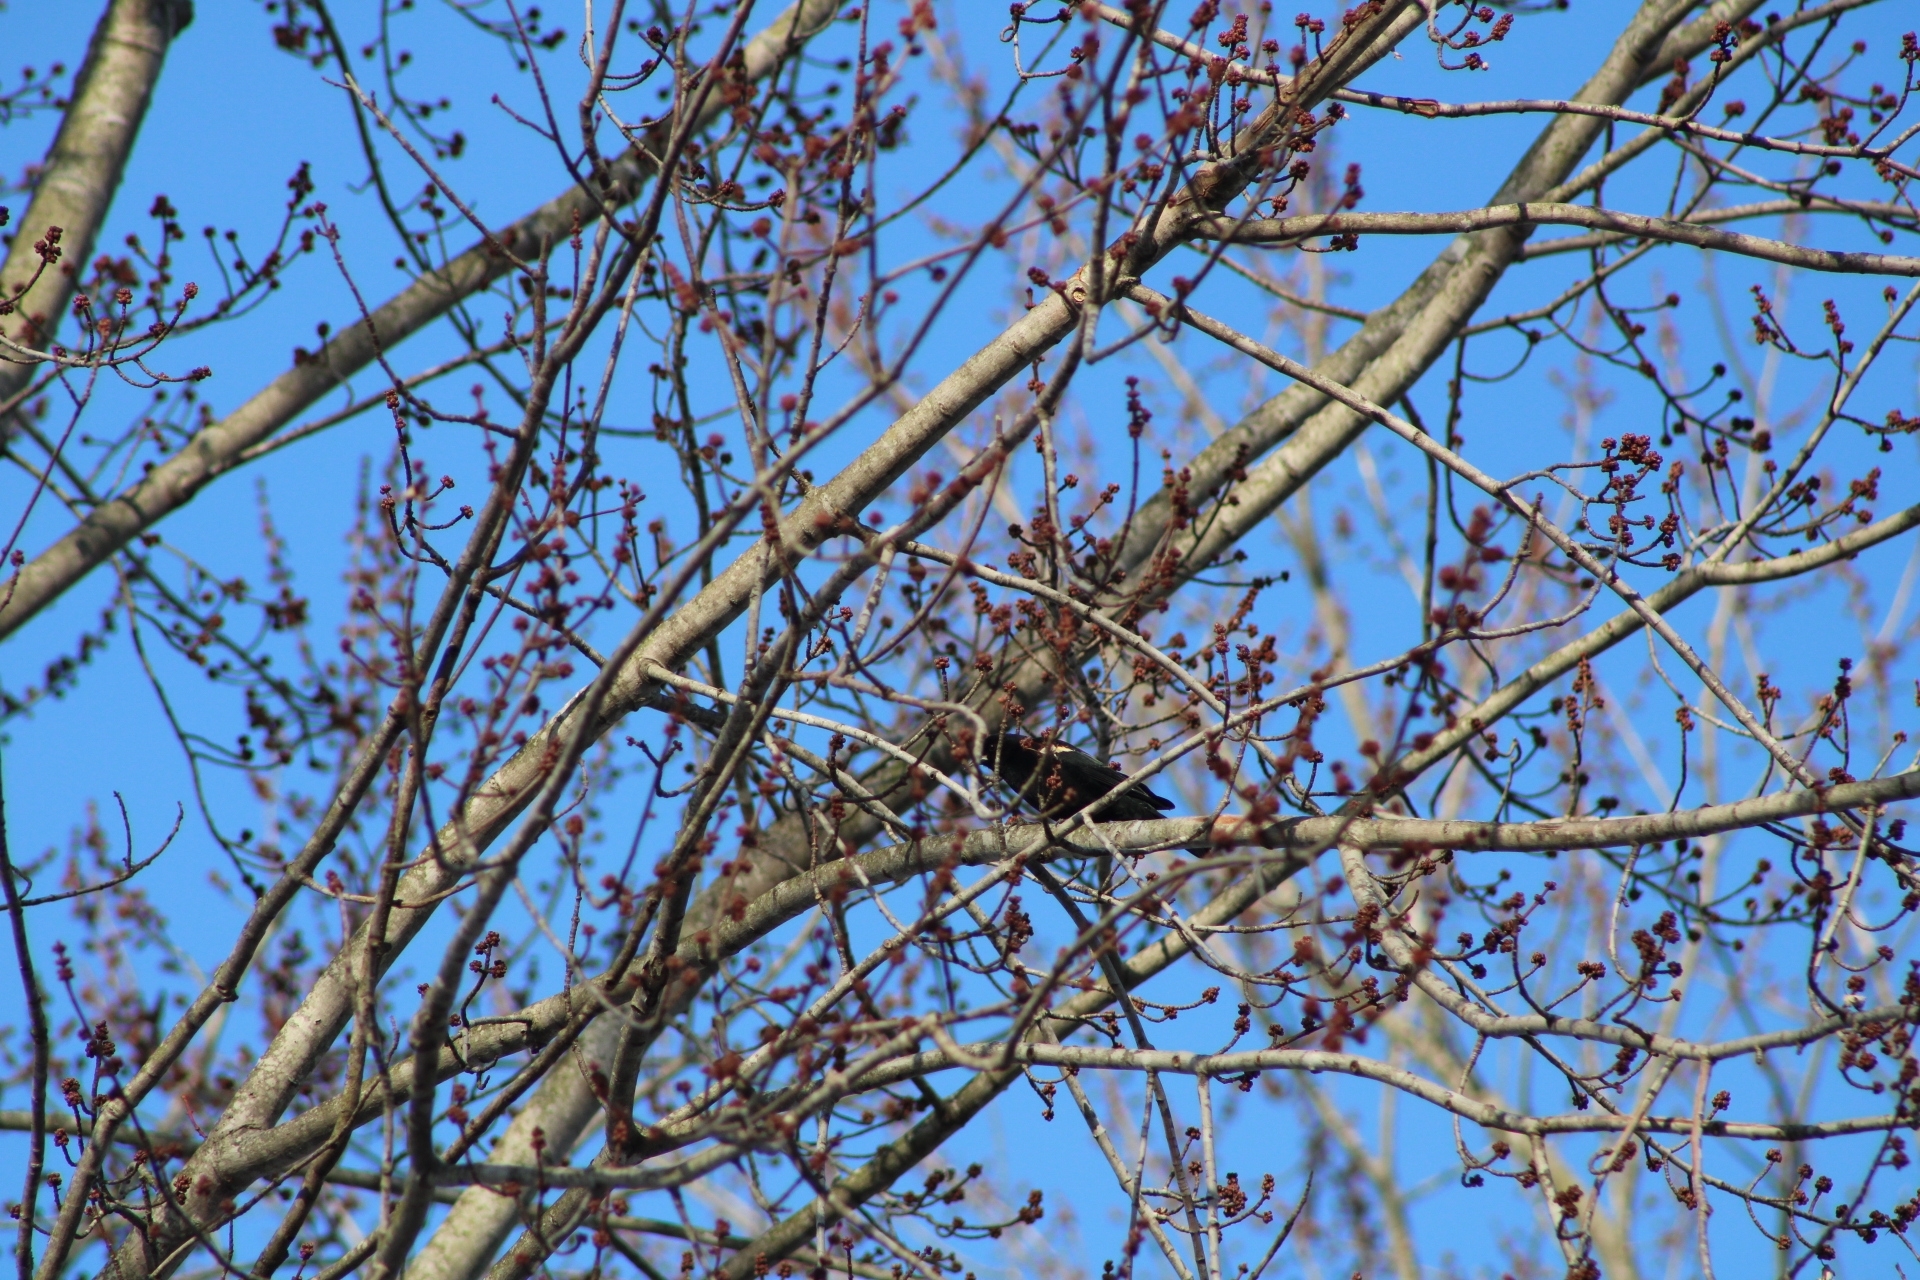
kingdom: Animalia
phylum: Chordata
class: Aves
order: Passeriformes
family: Icteridae
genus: Agelaius
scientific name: Agelaius phoeniceus
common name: Red-winged blackbird
